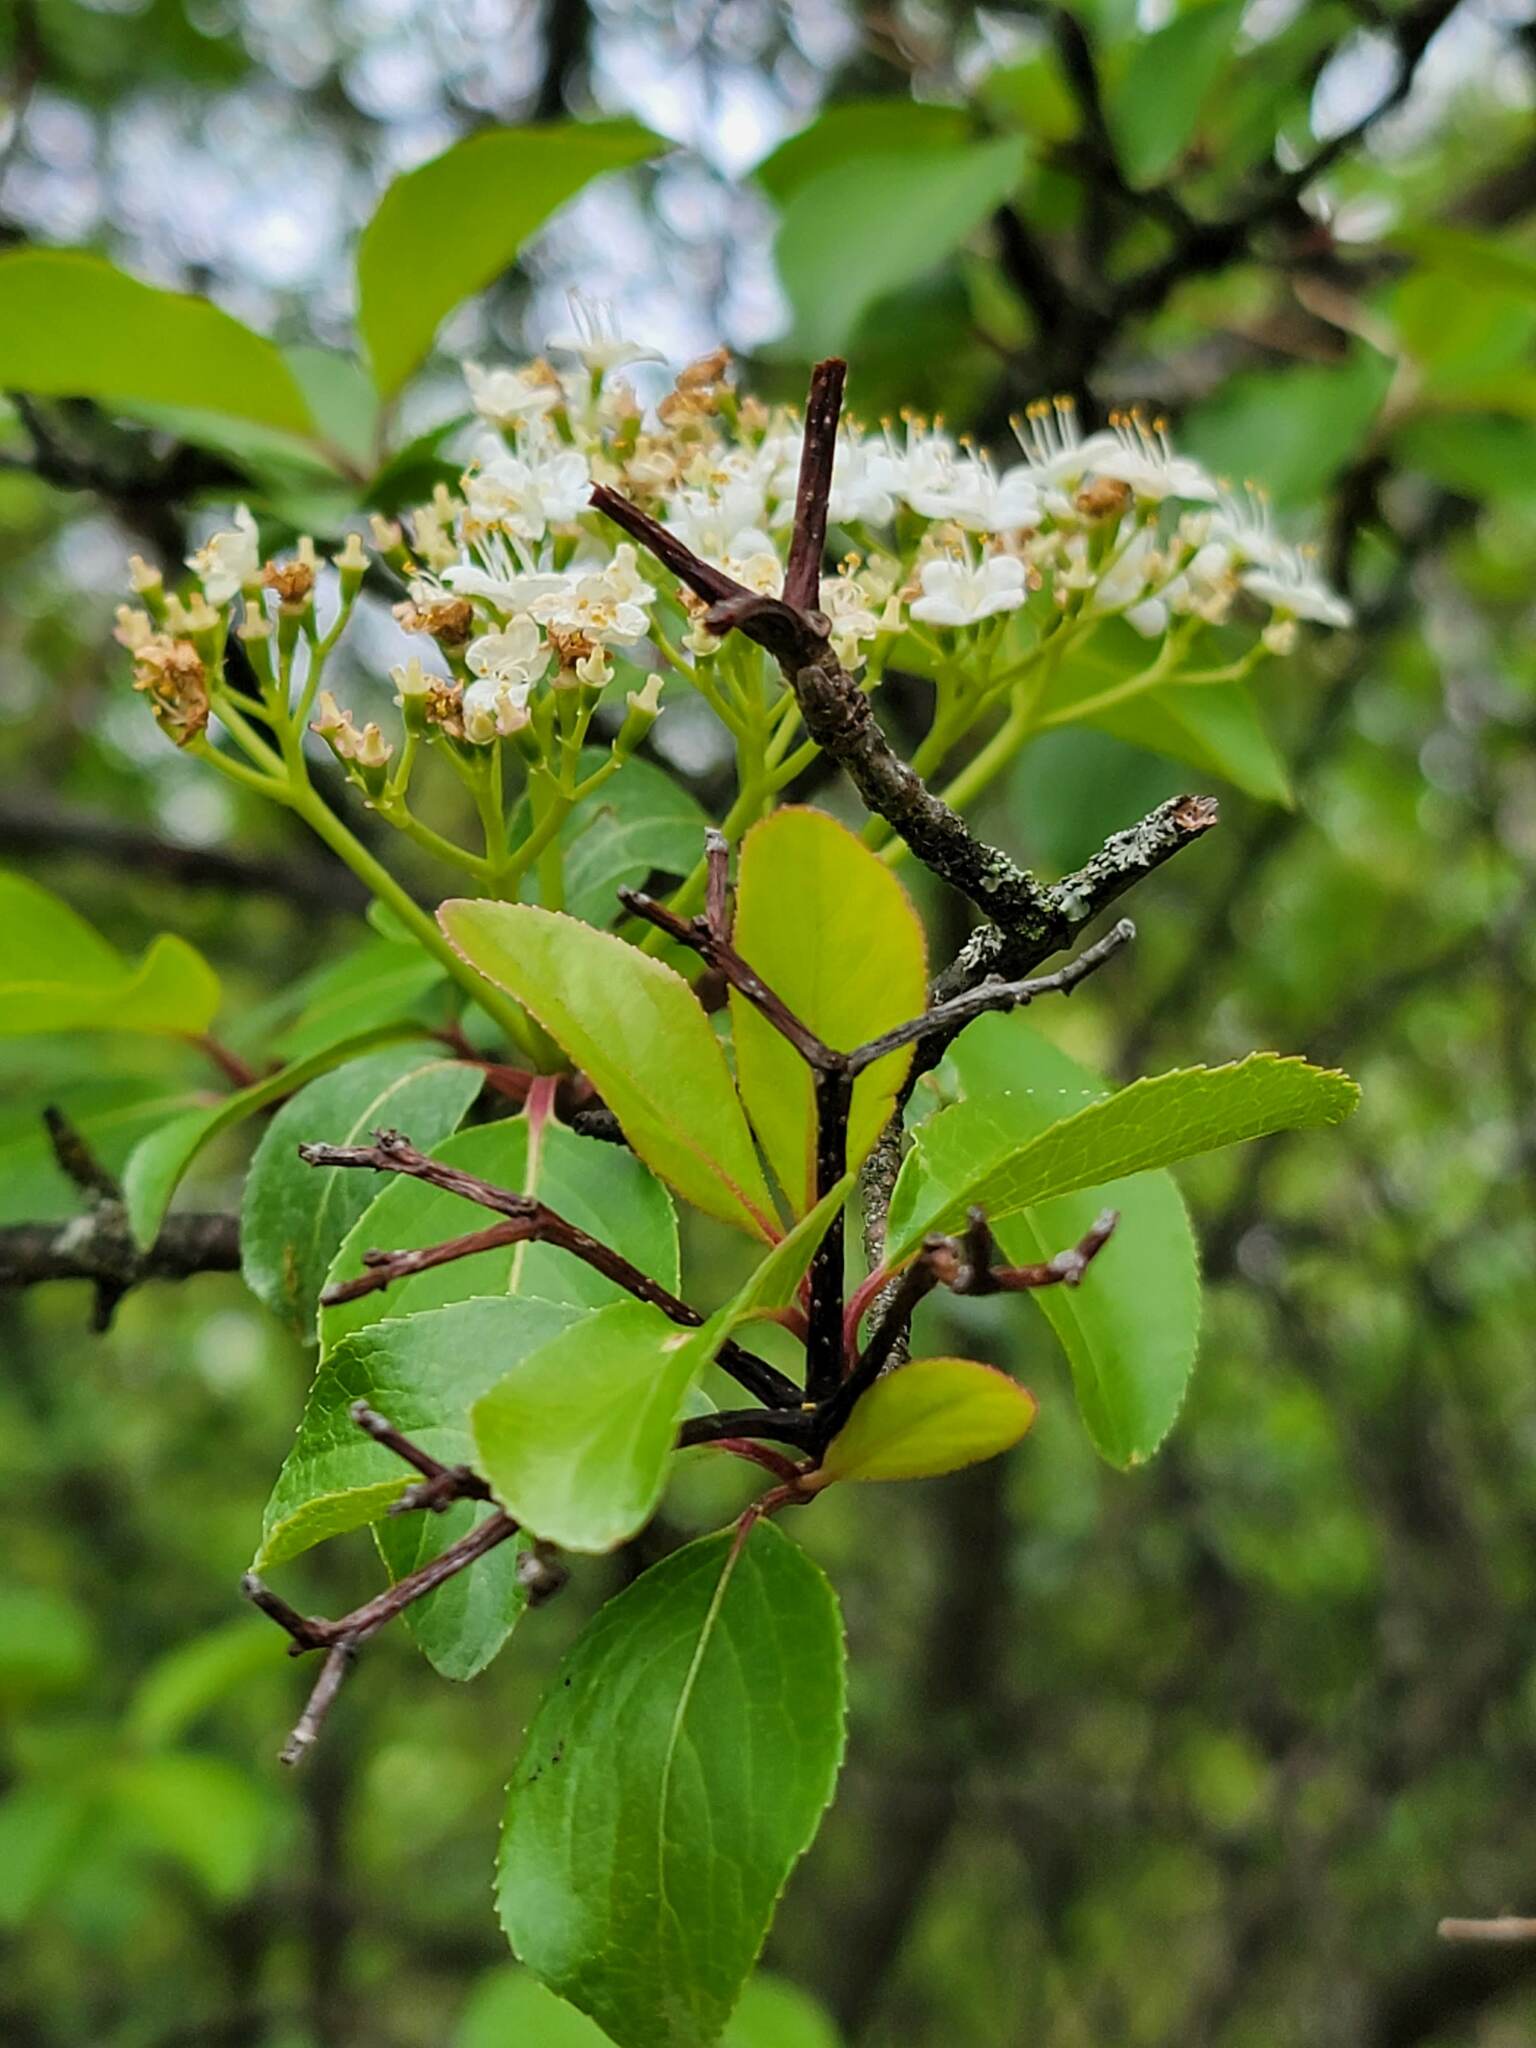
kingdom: Plantae
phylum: Tracheophyta
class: Magnoliopsida
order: Dipsacales
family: Viburnaceae
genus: Viburnum
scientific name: Viburnum prunifolium
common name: Black haw
